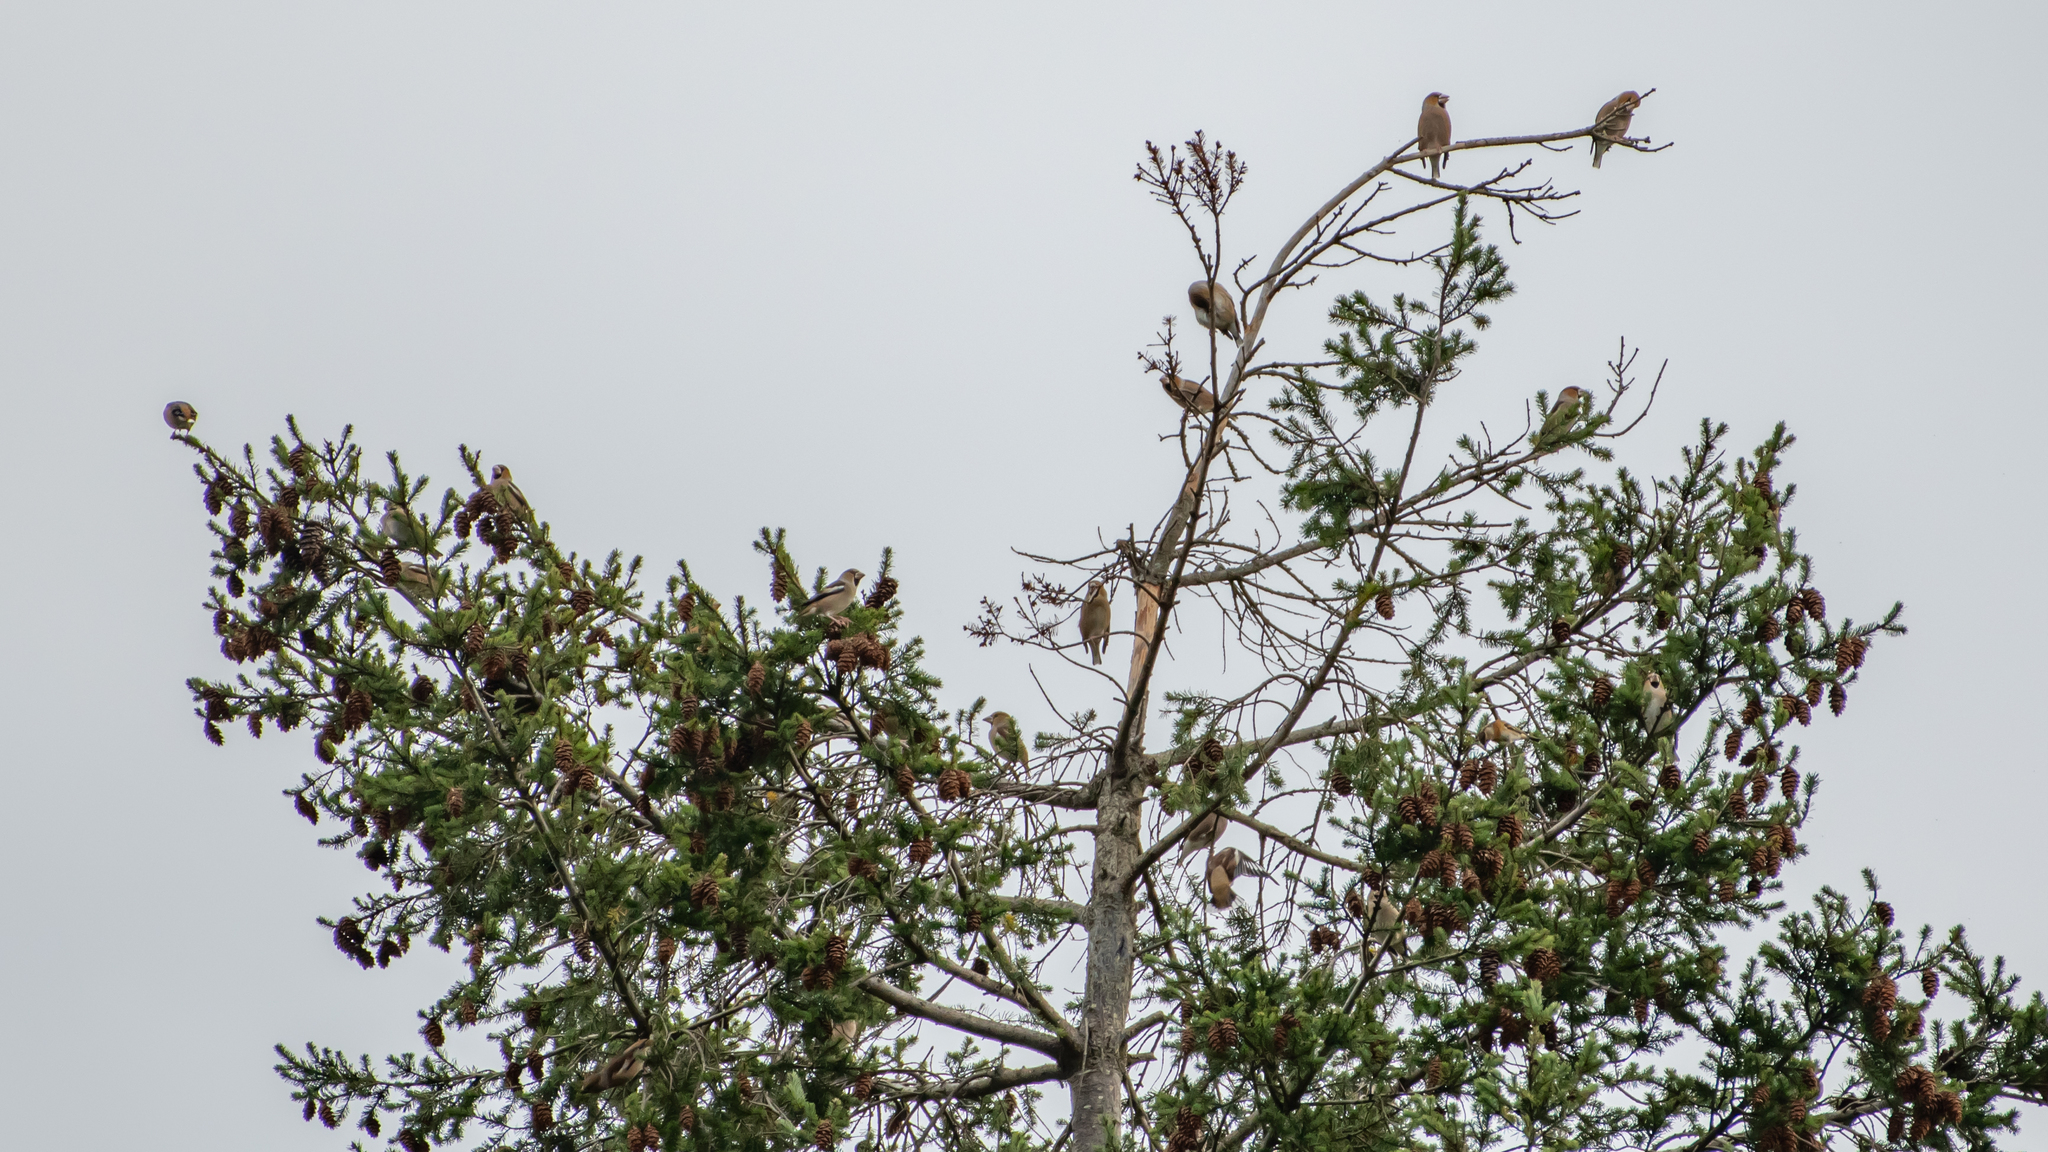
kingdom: Animalia
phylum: Chordata
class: Aves
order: Passeriformes
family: Fringillidae
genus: Coccothraustes
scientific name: Coccothraustes coccothraustes
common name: Hawfinch
